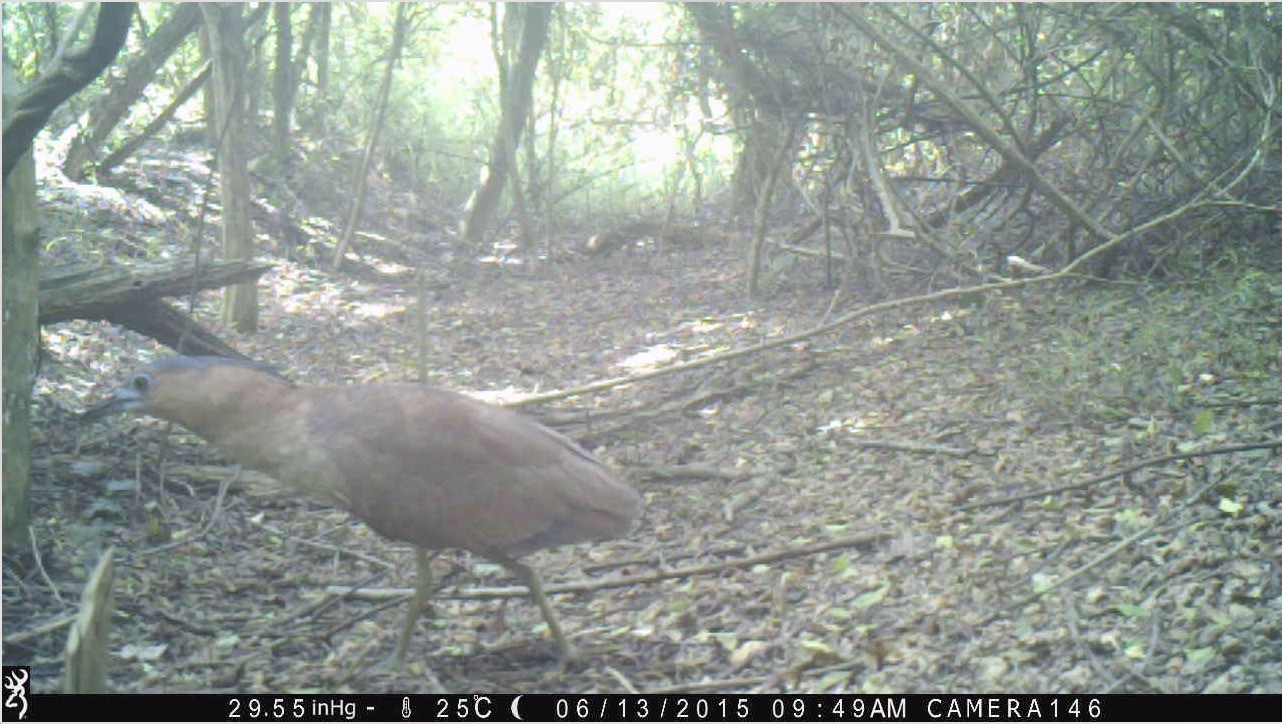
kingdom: Animalia
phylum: Chordata
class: Aves
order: Pelecaniformes
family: Ardeidae
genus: Gorsachius
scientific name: Gorsachius melanolophus
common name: Malayan night heron
